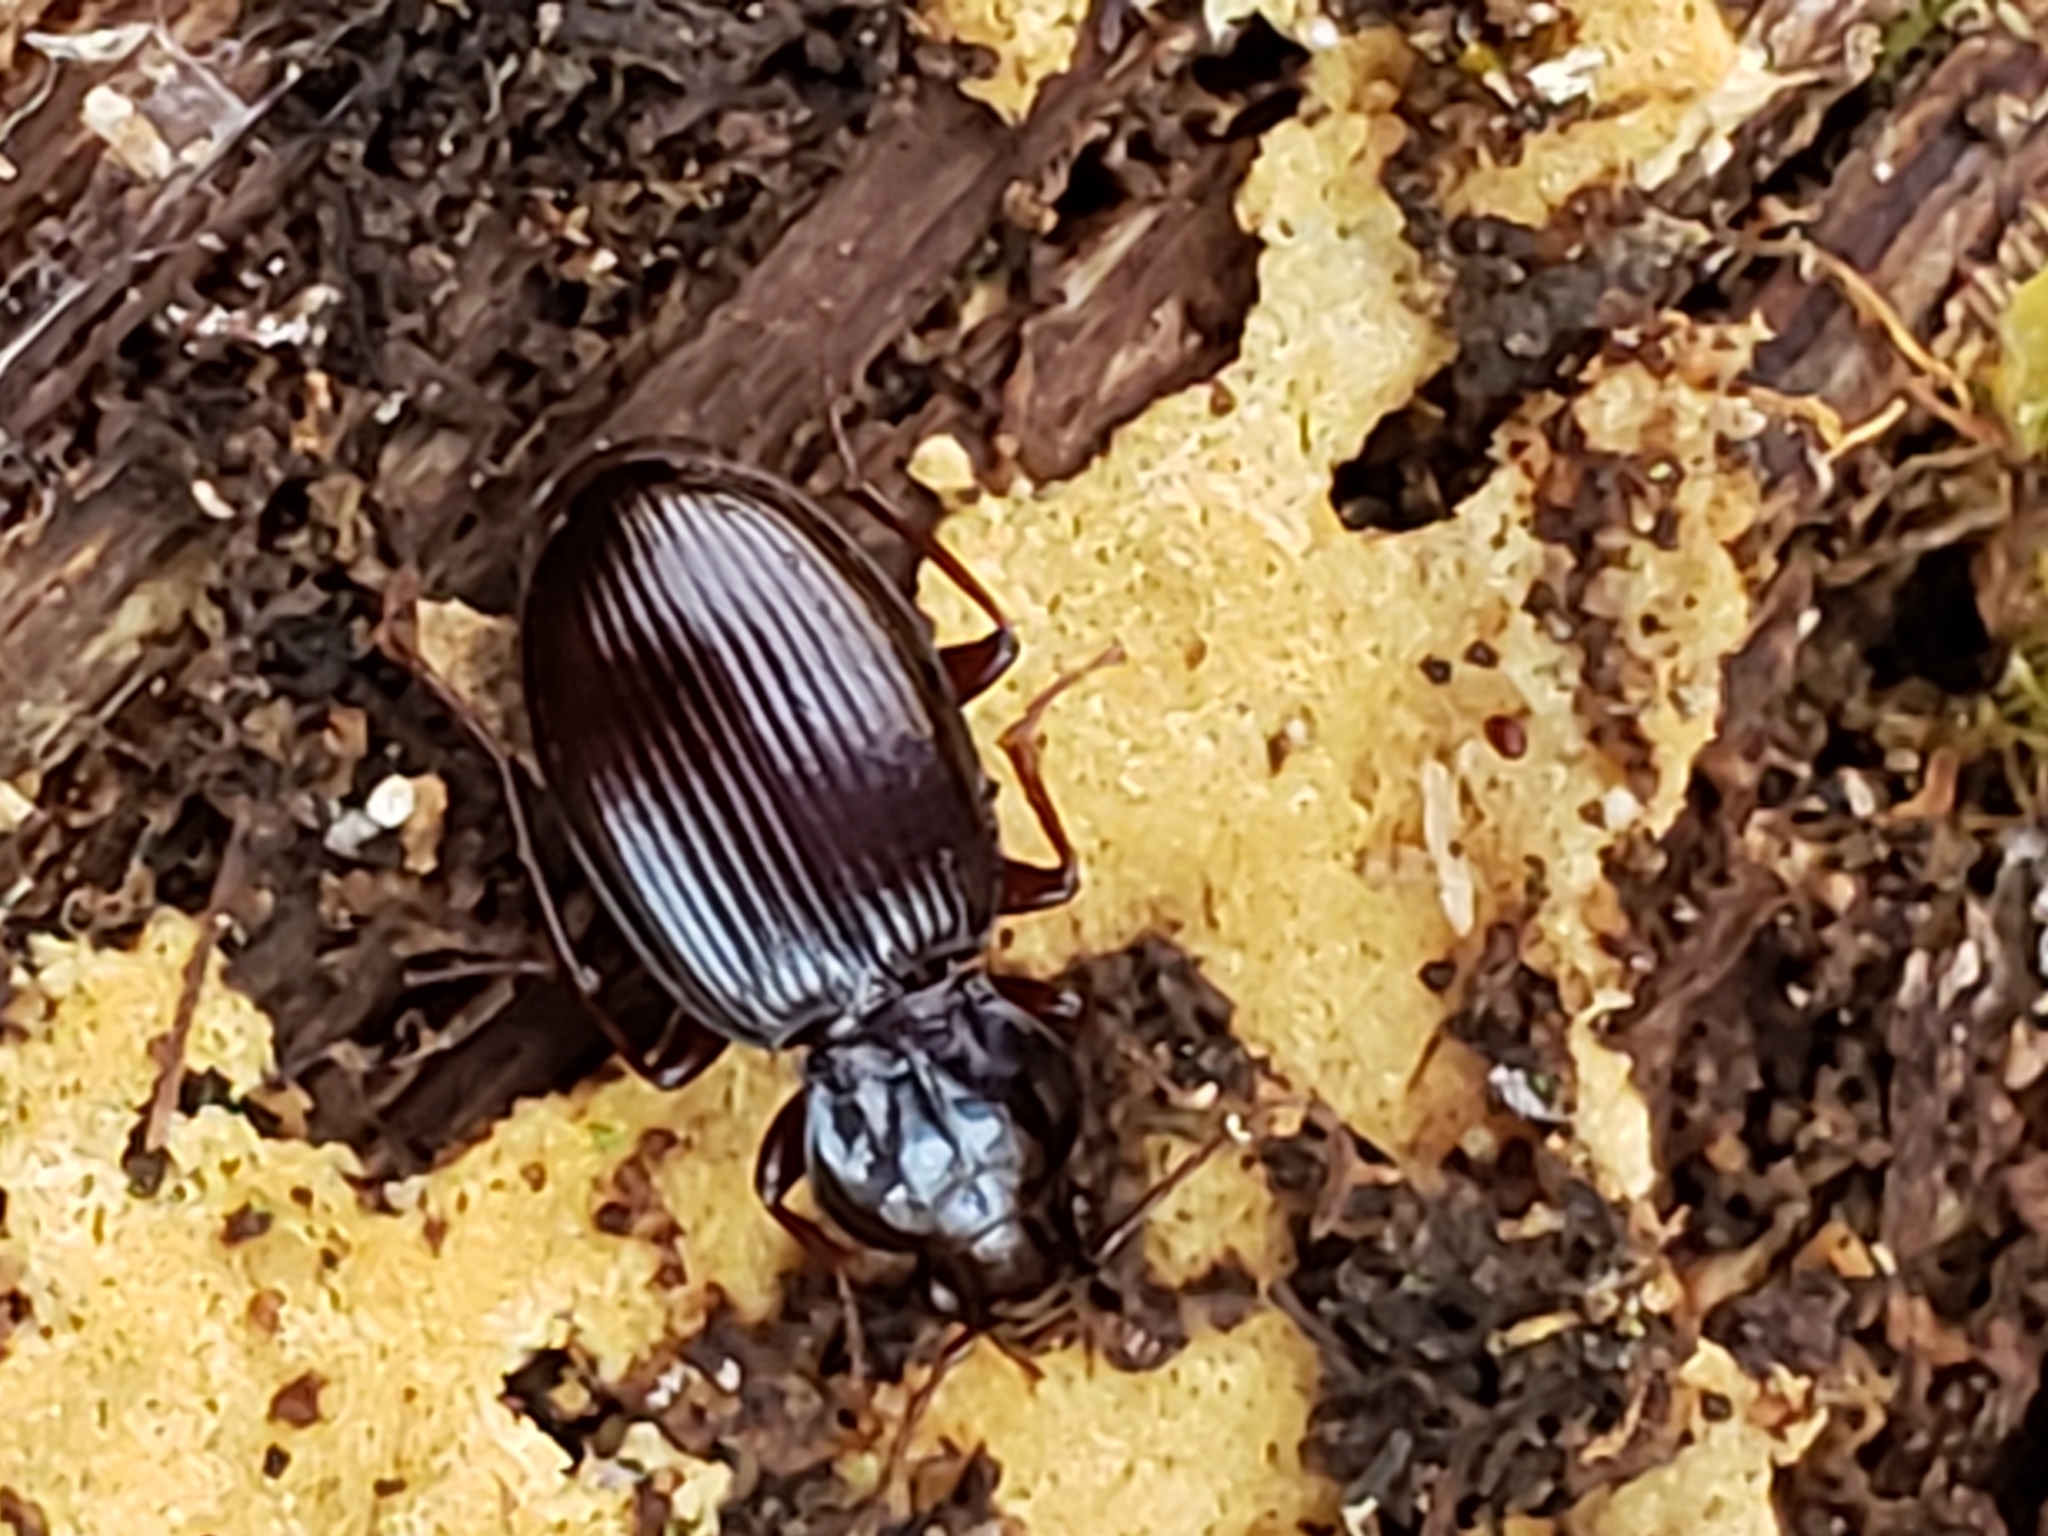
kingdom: Animalia
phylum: Arthropoda
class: Insecta
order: Coleoptera
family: Carabidae
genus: Gastrellarius
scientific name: Gastrellarius honestus
